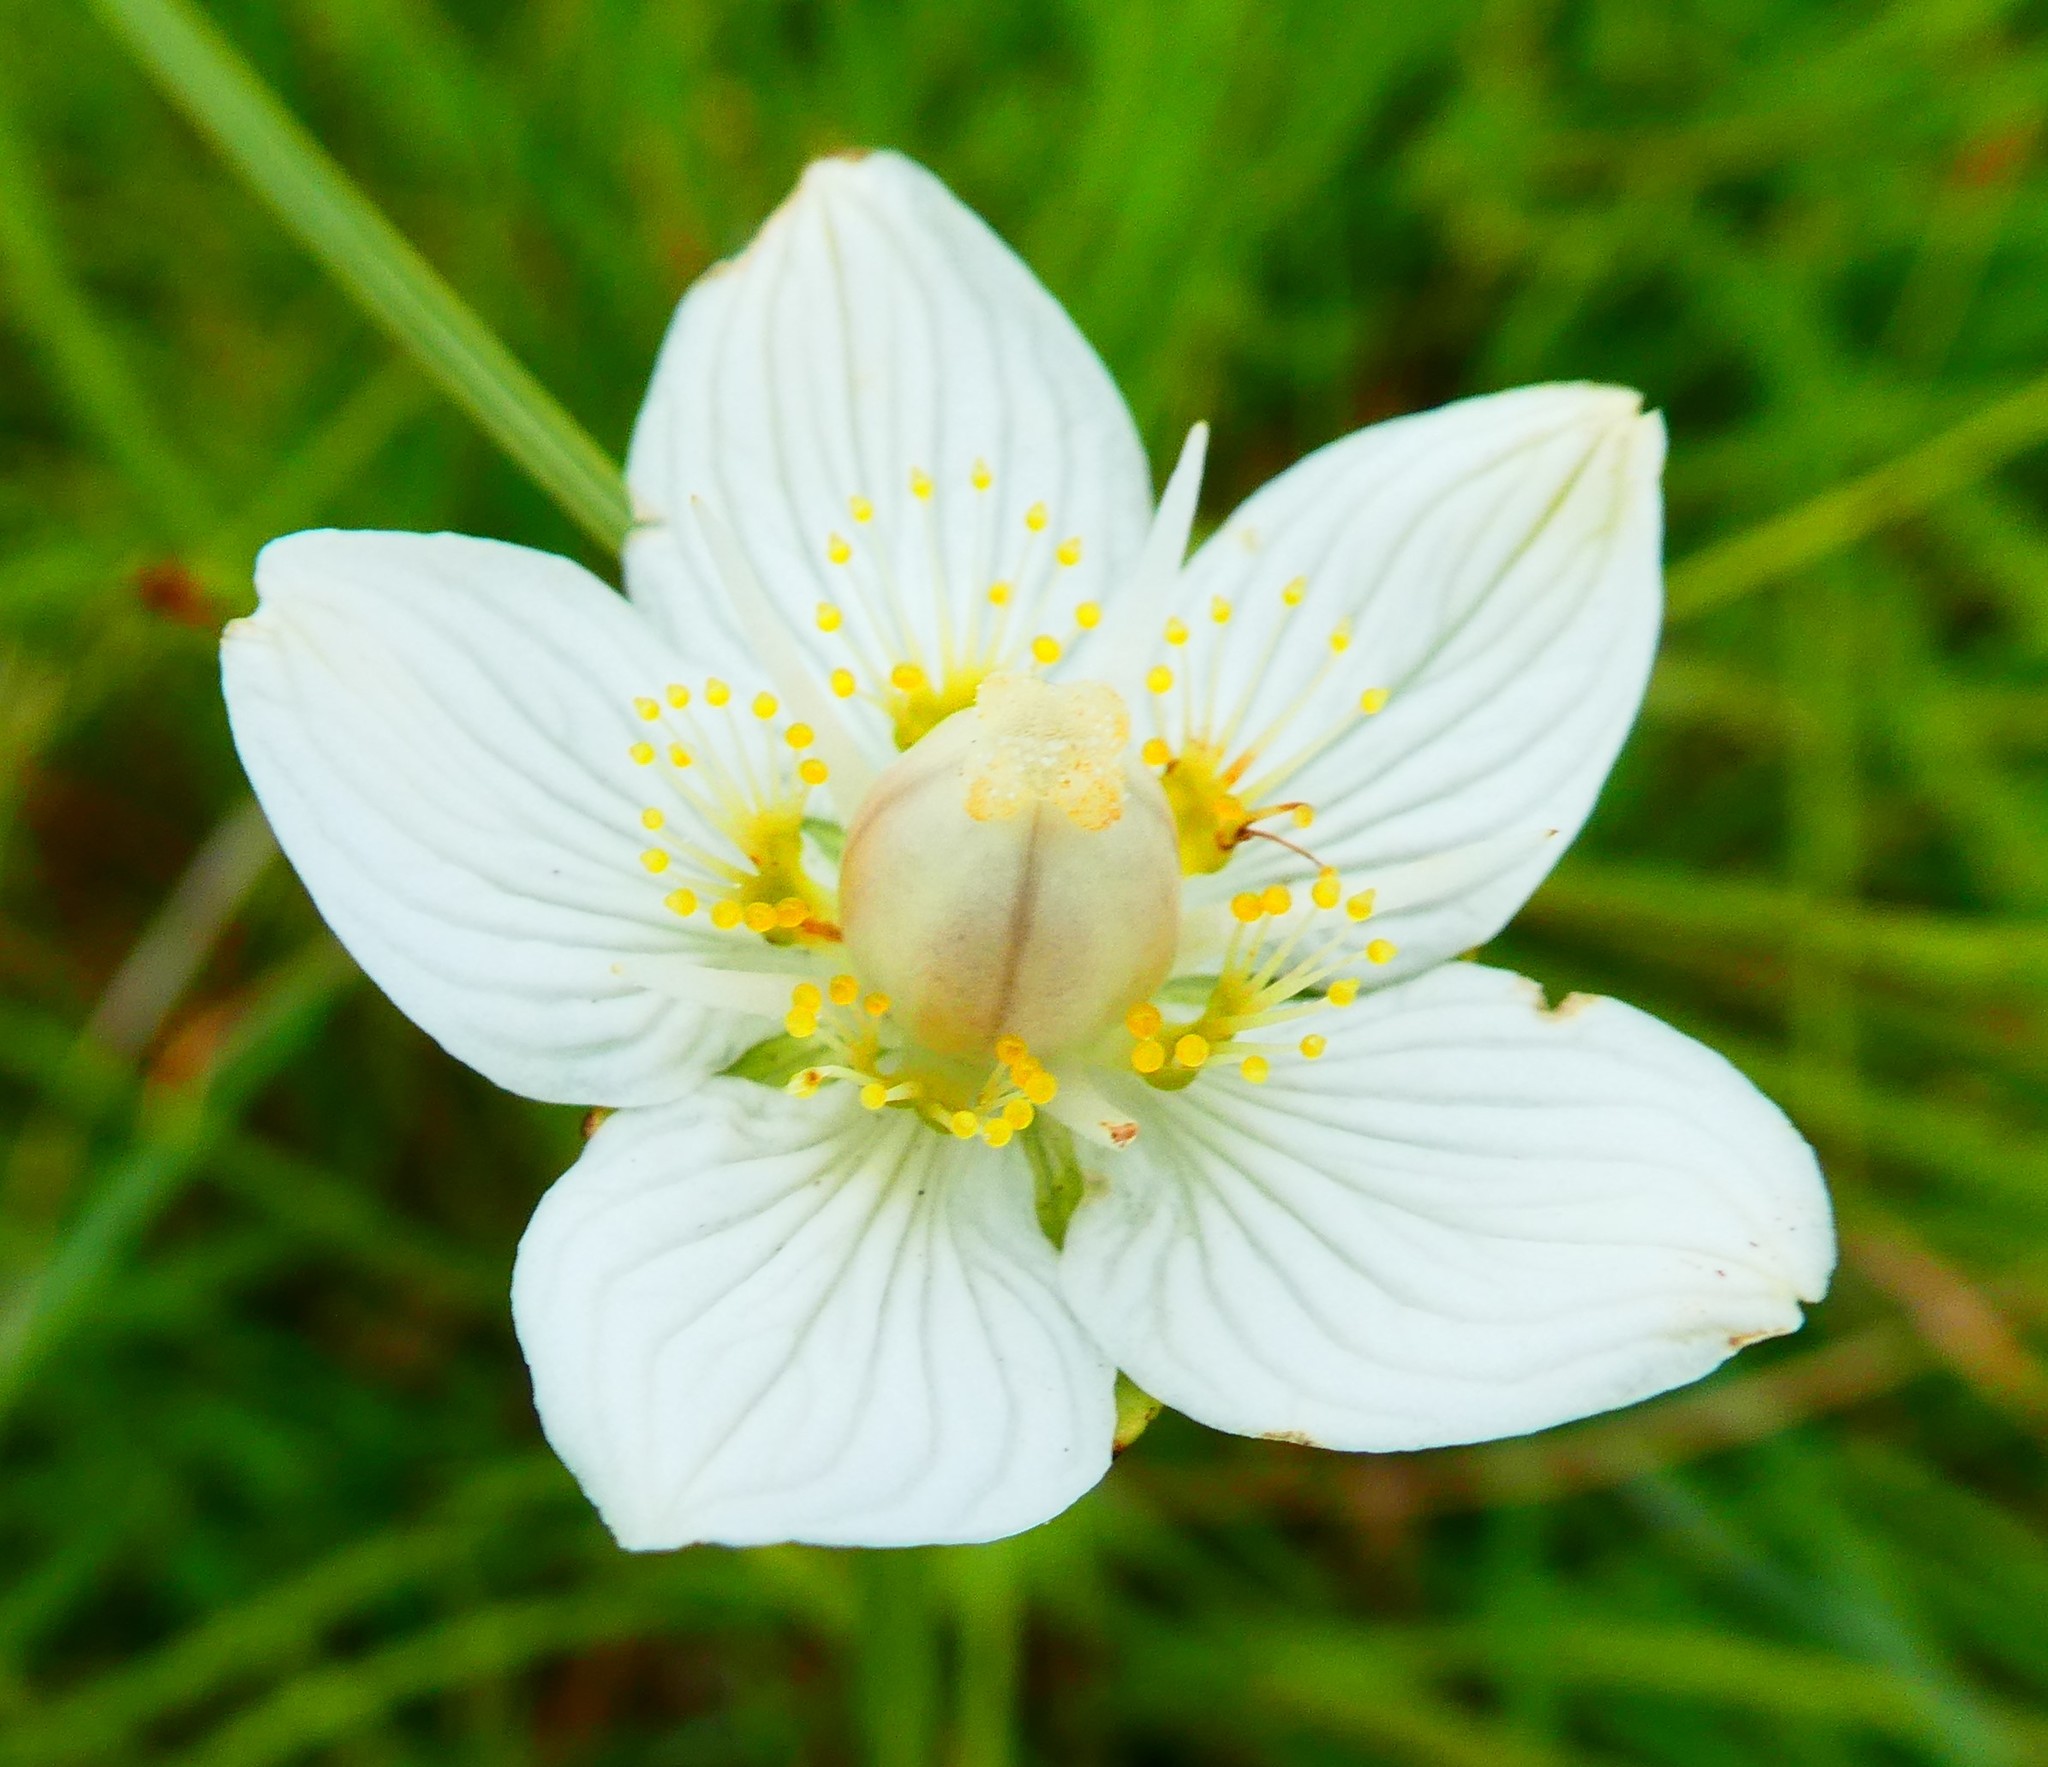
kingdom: Plantae
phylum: Tracheophyta
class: Magnoliopsida
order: Celastrales
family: Parnassiaceae
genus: Parnassia
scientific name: Parnassia palustris
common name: Grass-of-parnassus
